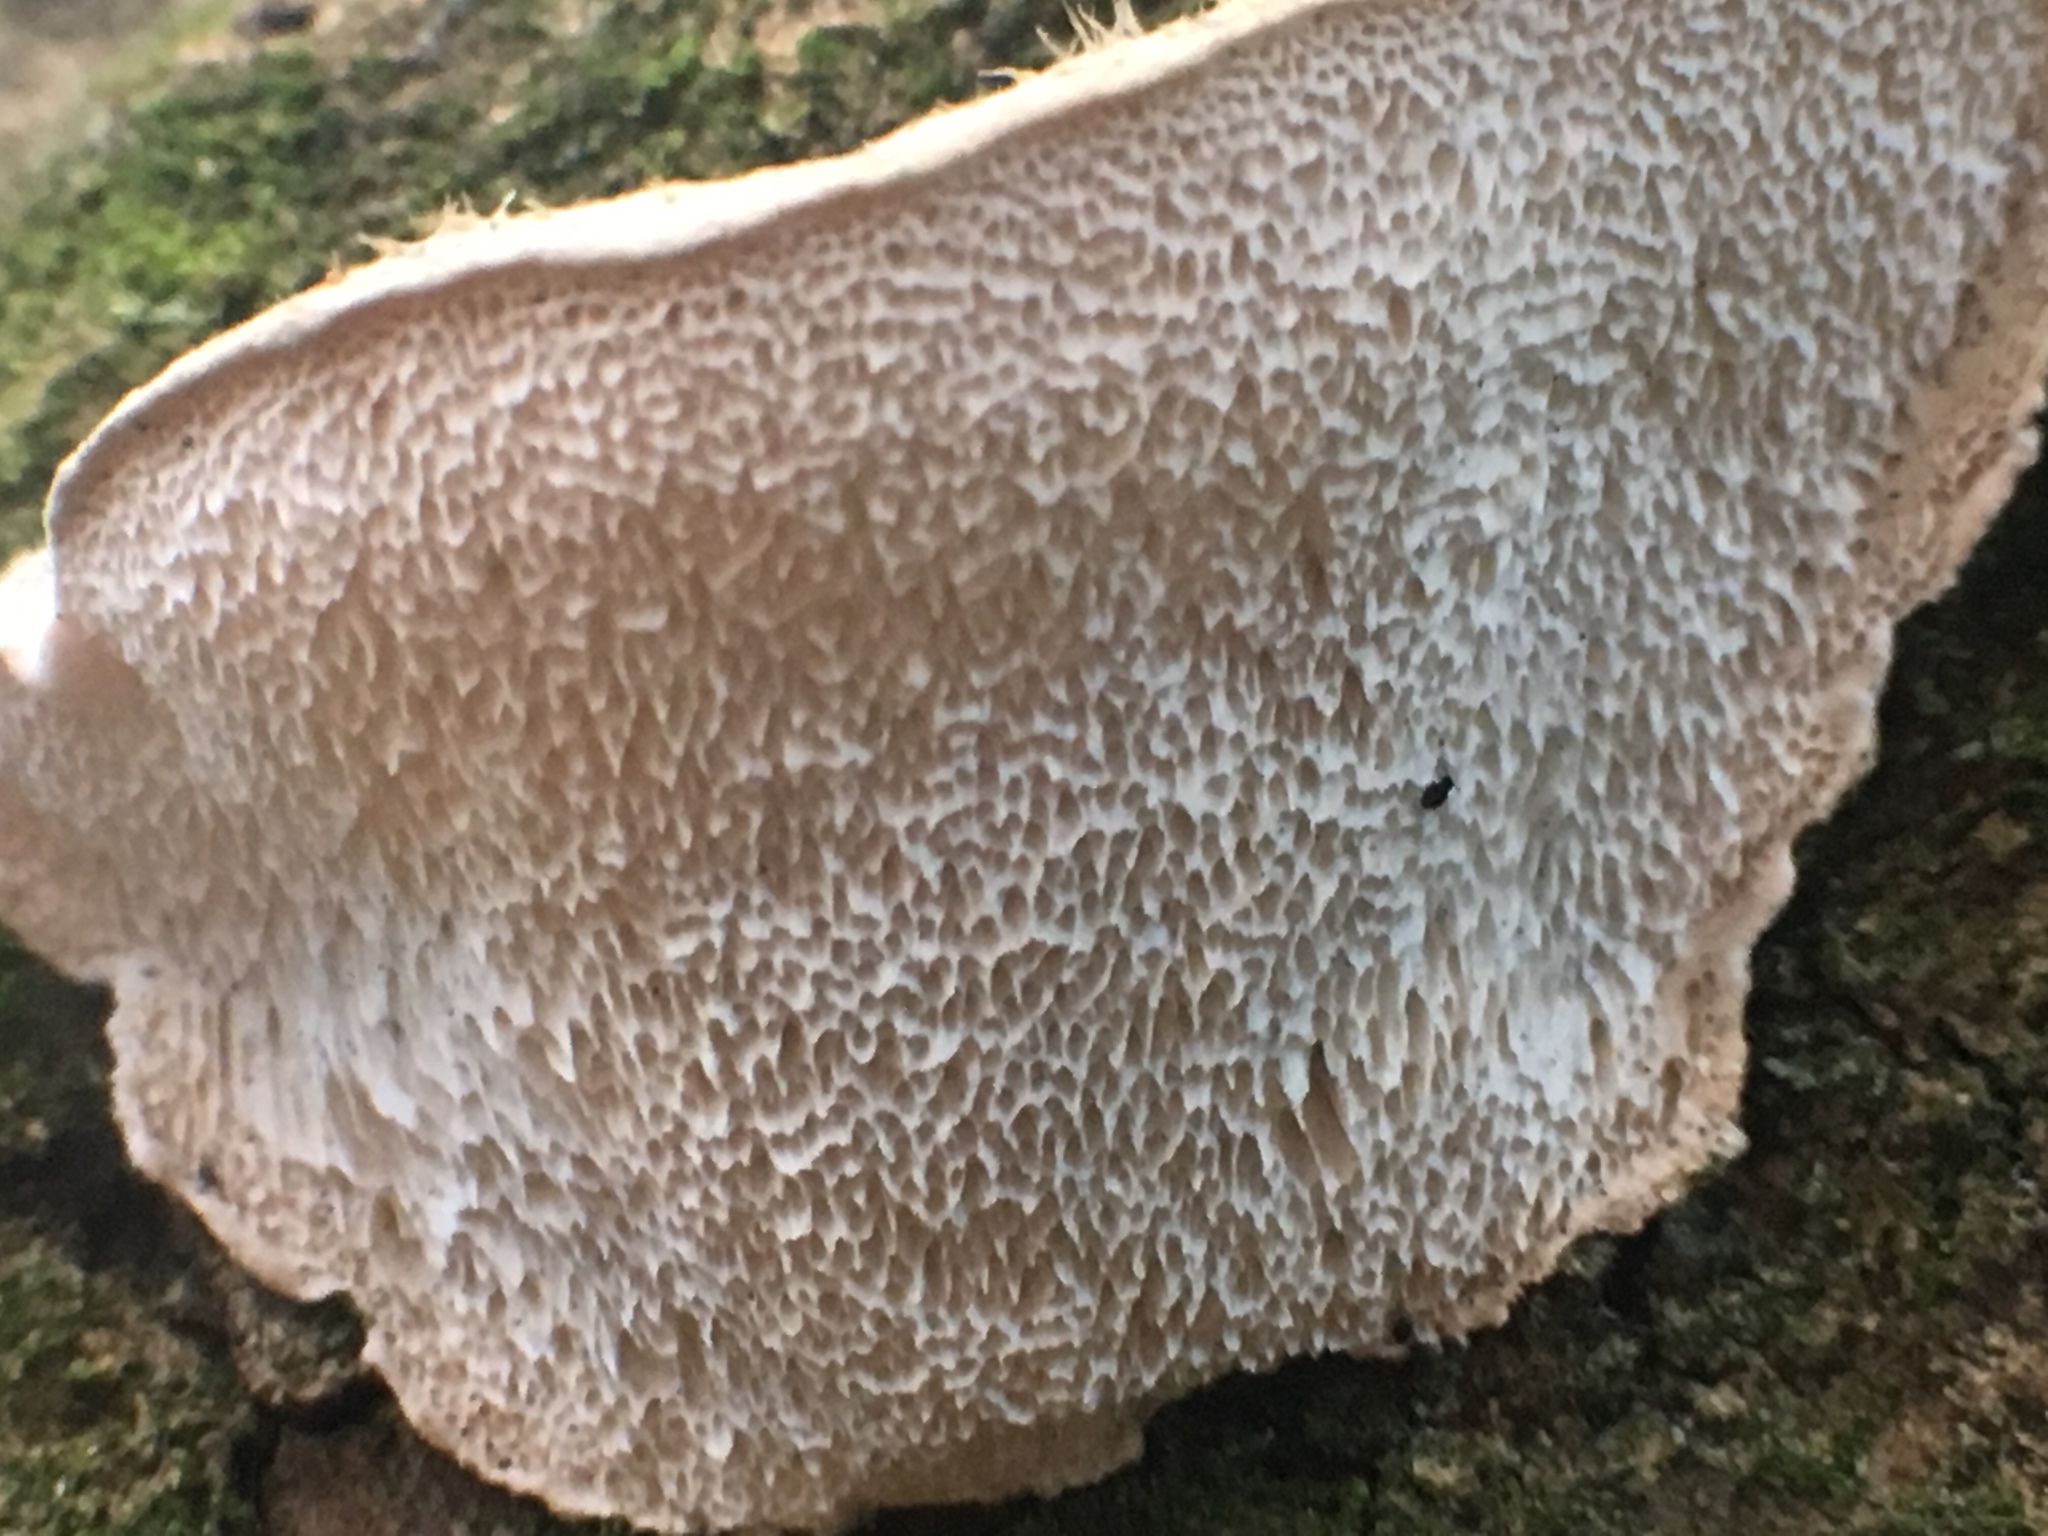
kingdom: Fungi
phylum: Basidiomycota
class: Agaricomycetes
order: Polyporales
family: Polyporaceae
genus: Cyanosporus
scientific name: Cyanosporus caesius
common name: Blue cheese polypore
